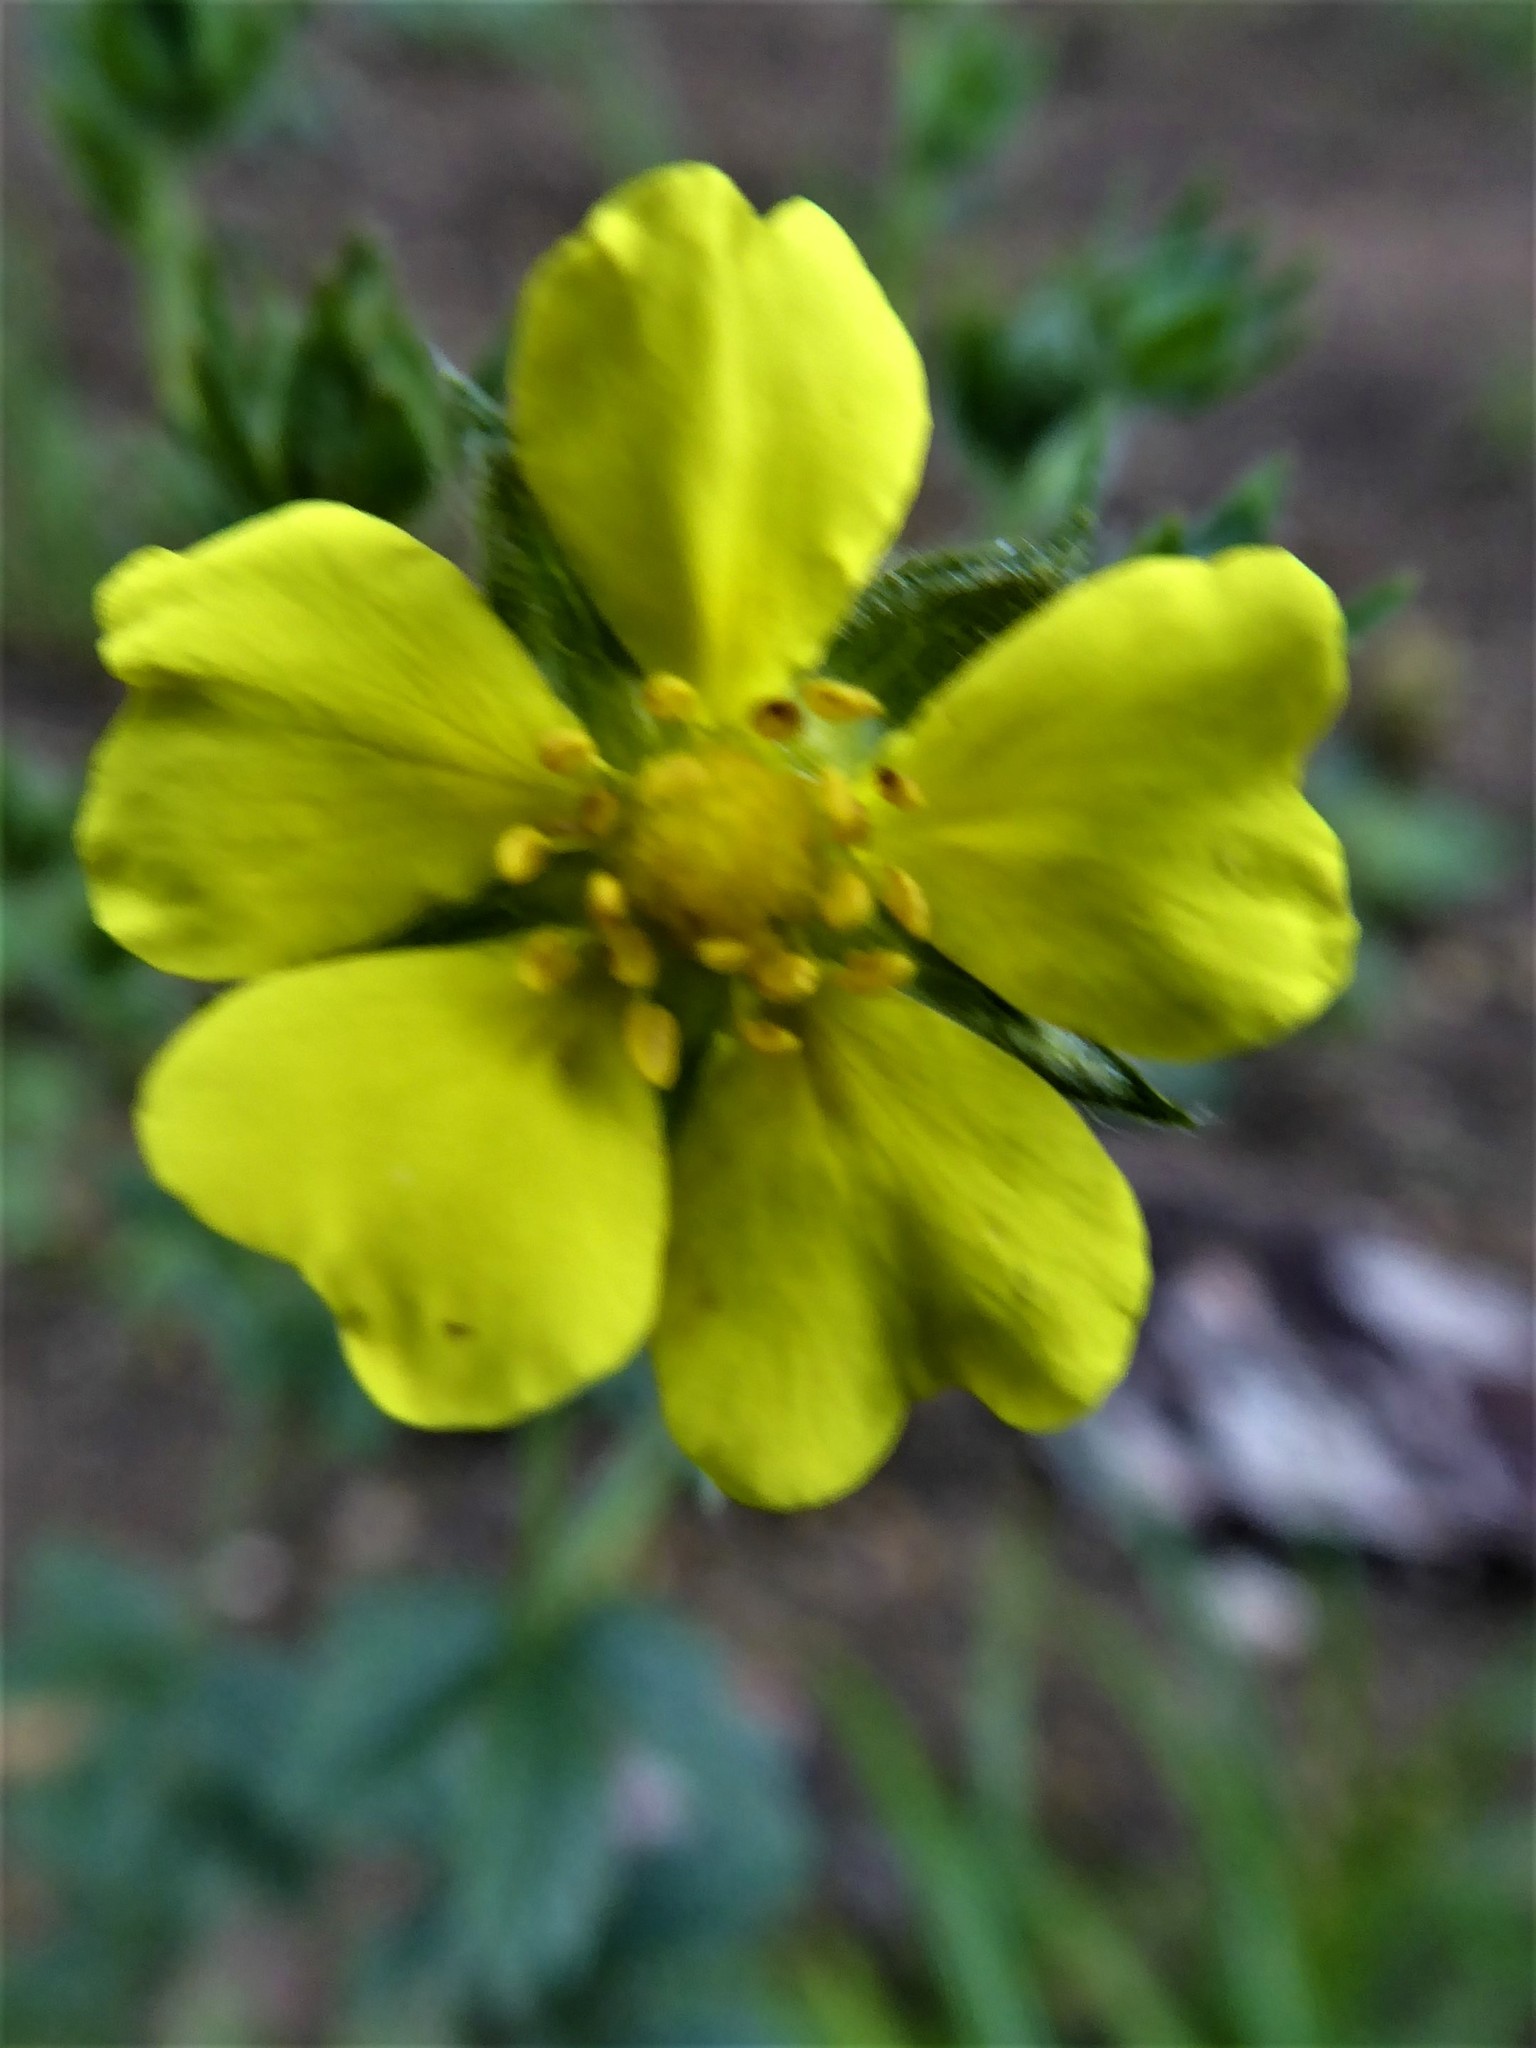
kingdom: Plantae
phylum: Tracheophyta
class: Magnoliopsida
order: Rosales
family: Rosaceae
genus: Potentilla
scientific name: Potentilla recta
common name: Sulphur cinquefoil
